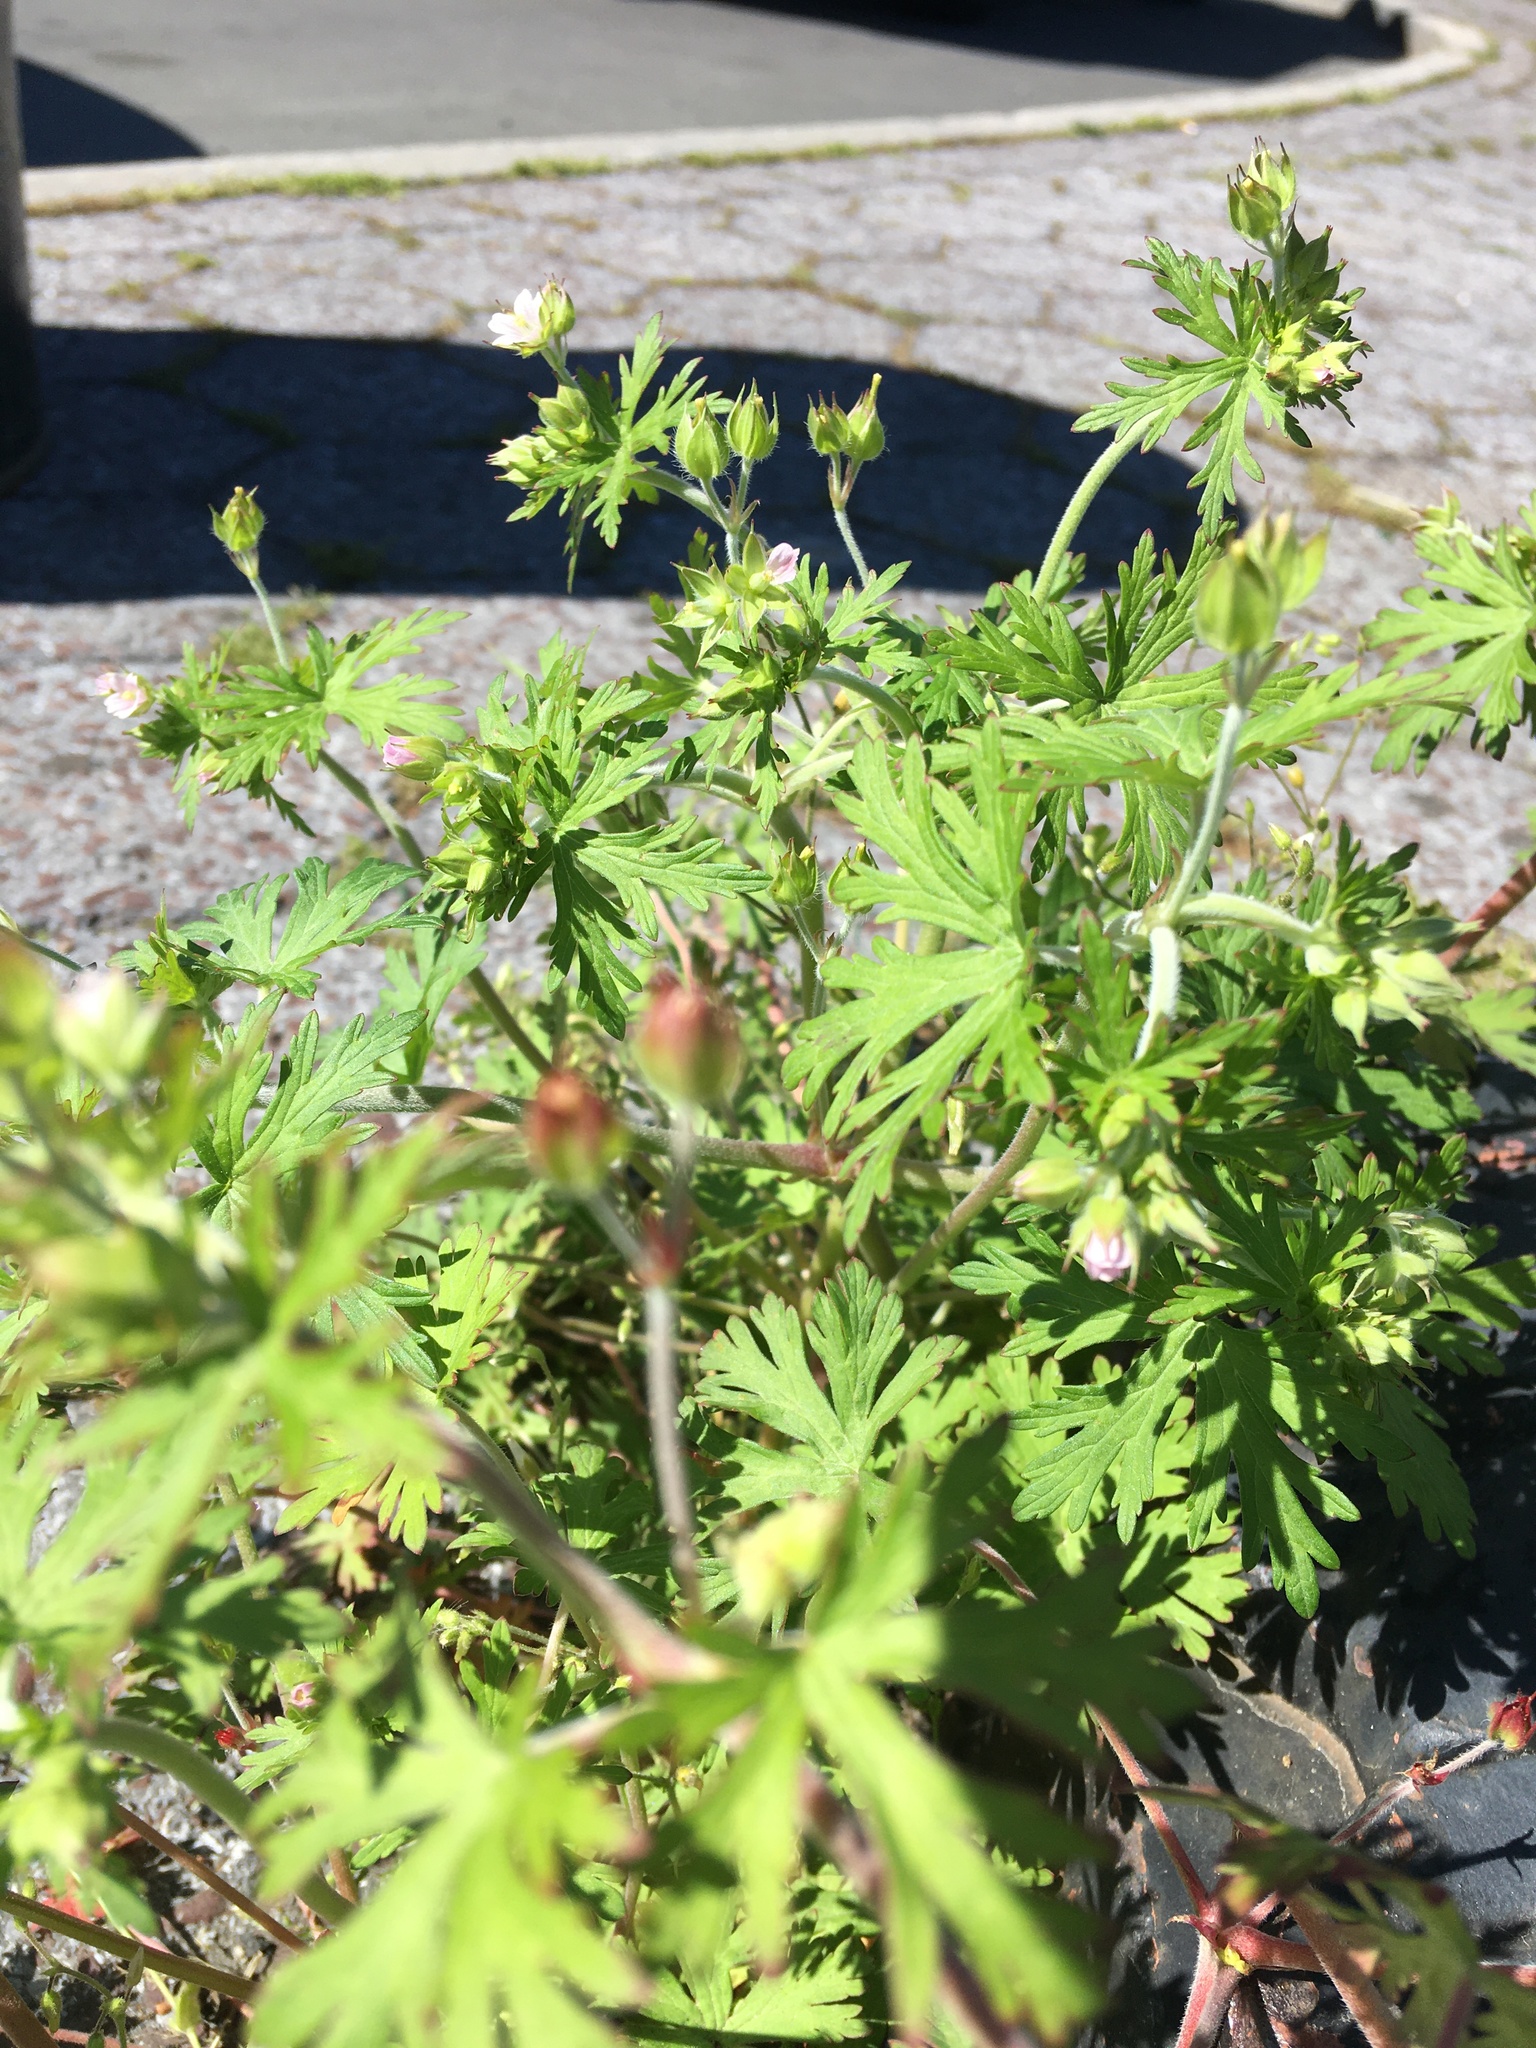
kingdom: Plantae
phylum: Tracheophyta
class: Magnoliopsida
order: Geraniales
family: Geraniaceae
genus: Geranium
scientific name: Geranium carolinianum
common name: Carolina crane's-bill
